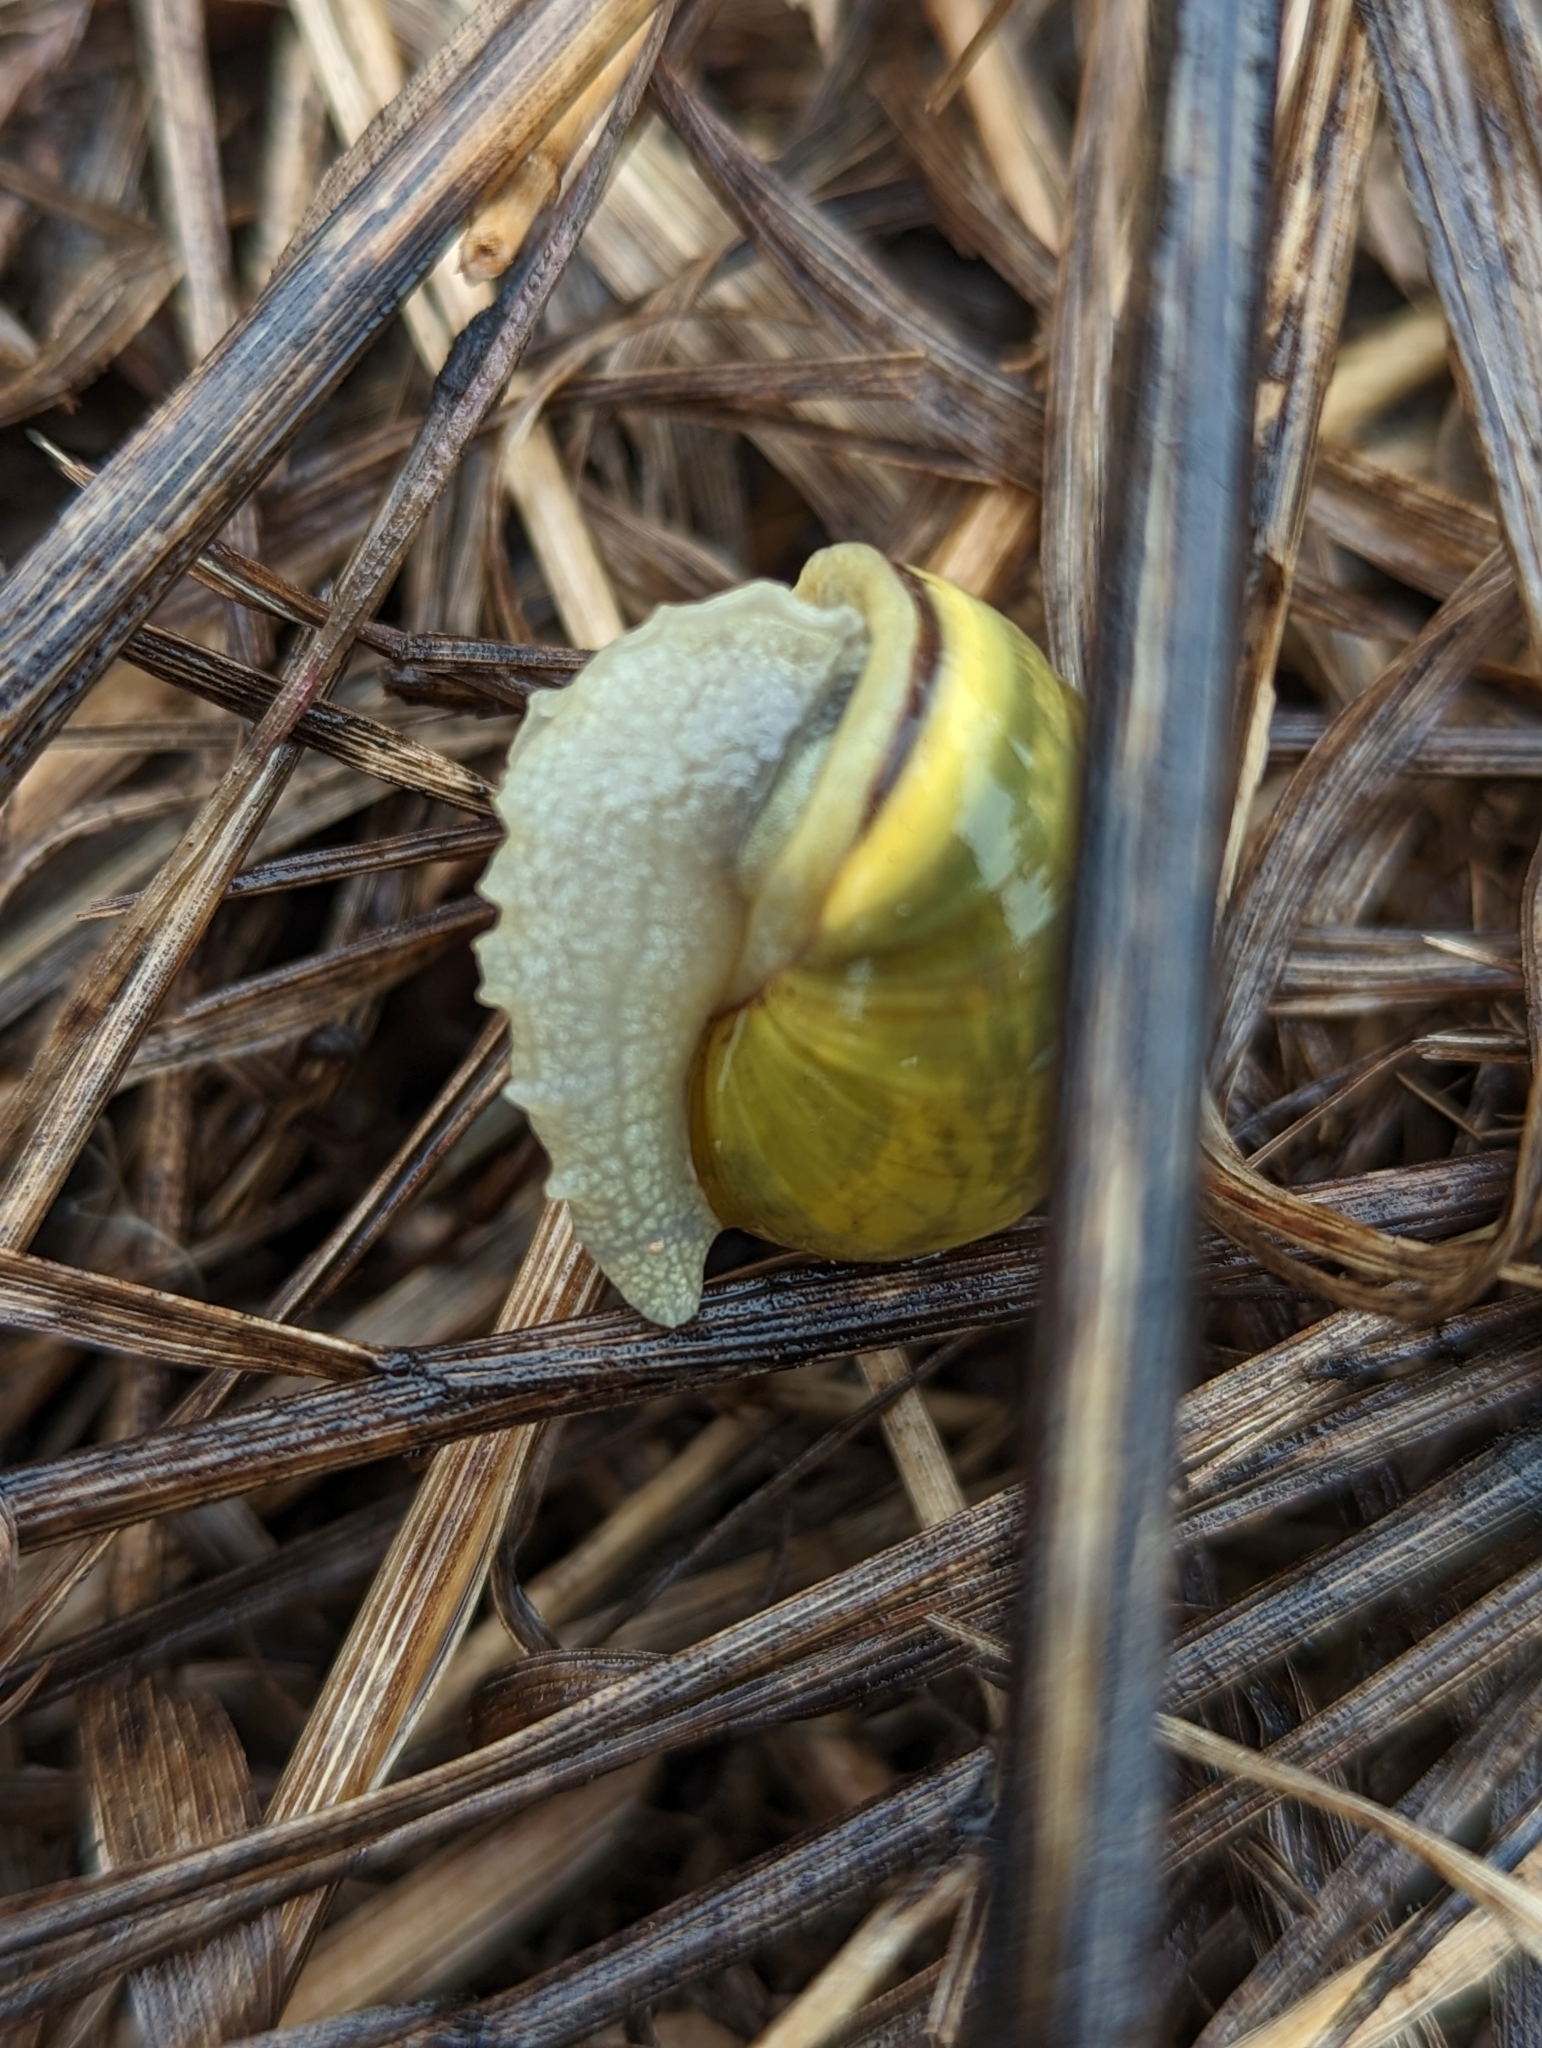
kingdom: Animalia
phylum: Mollusca
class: Gastropoda
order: Stylommatophora
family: Helicidae
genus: Cepaea
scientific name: Cepaea nemoralis
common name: Grovesnail
